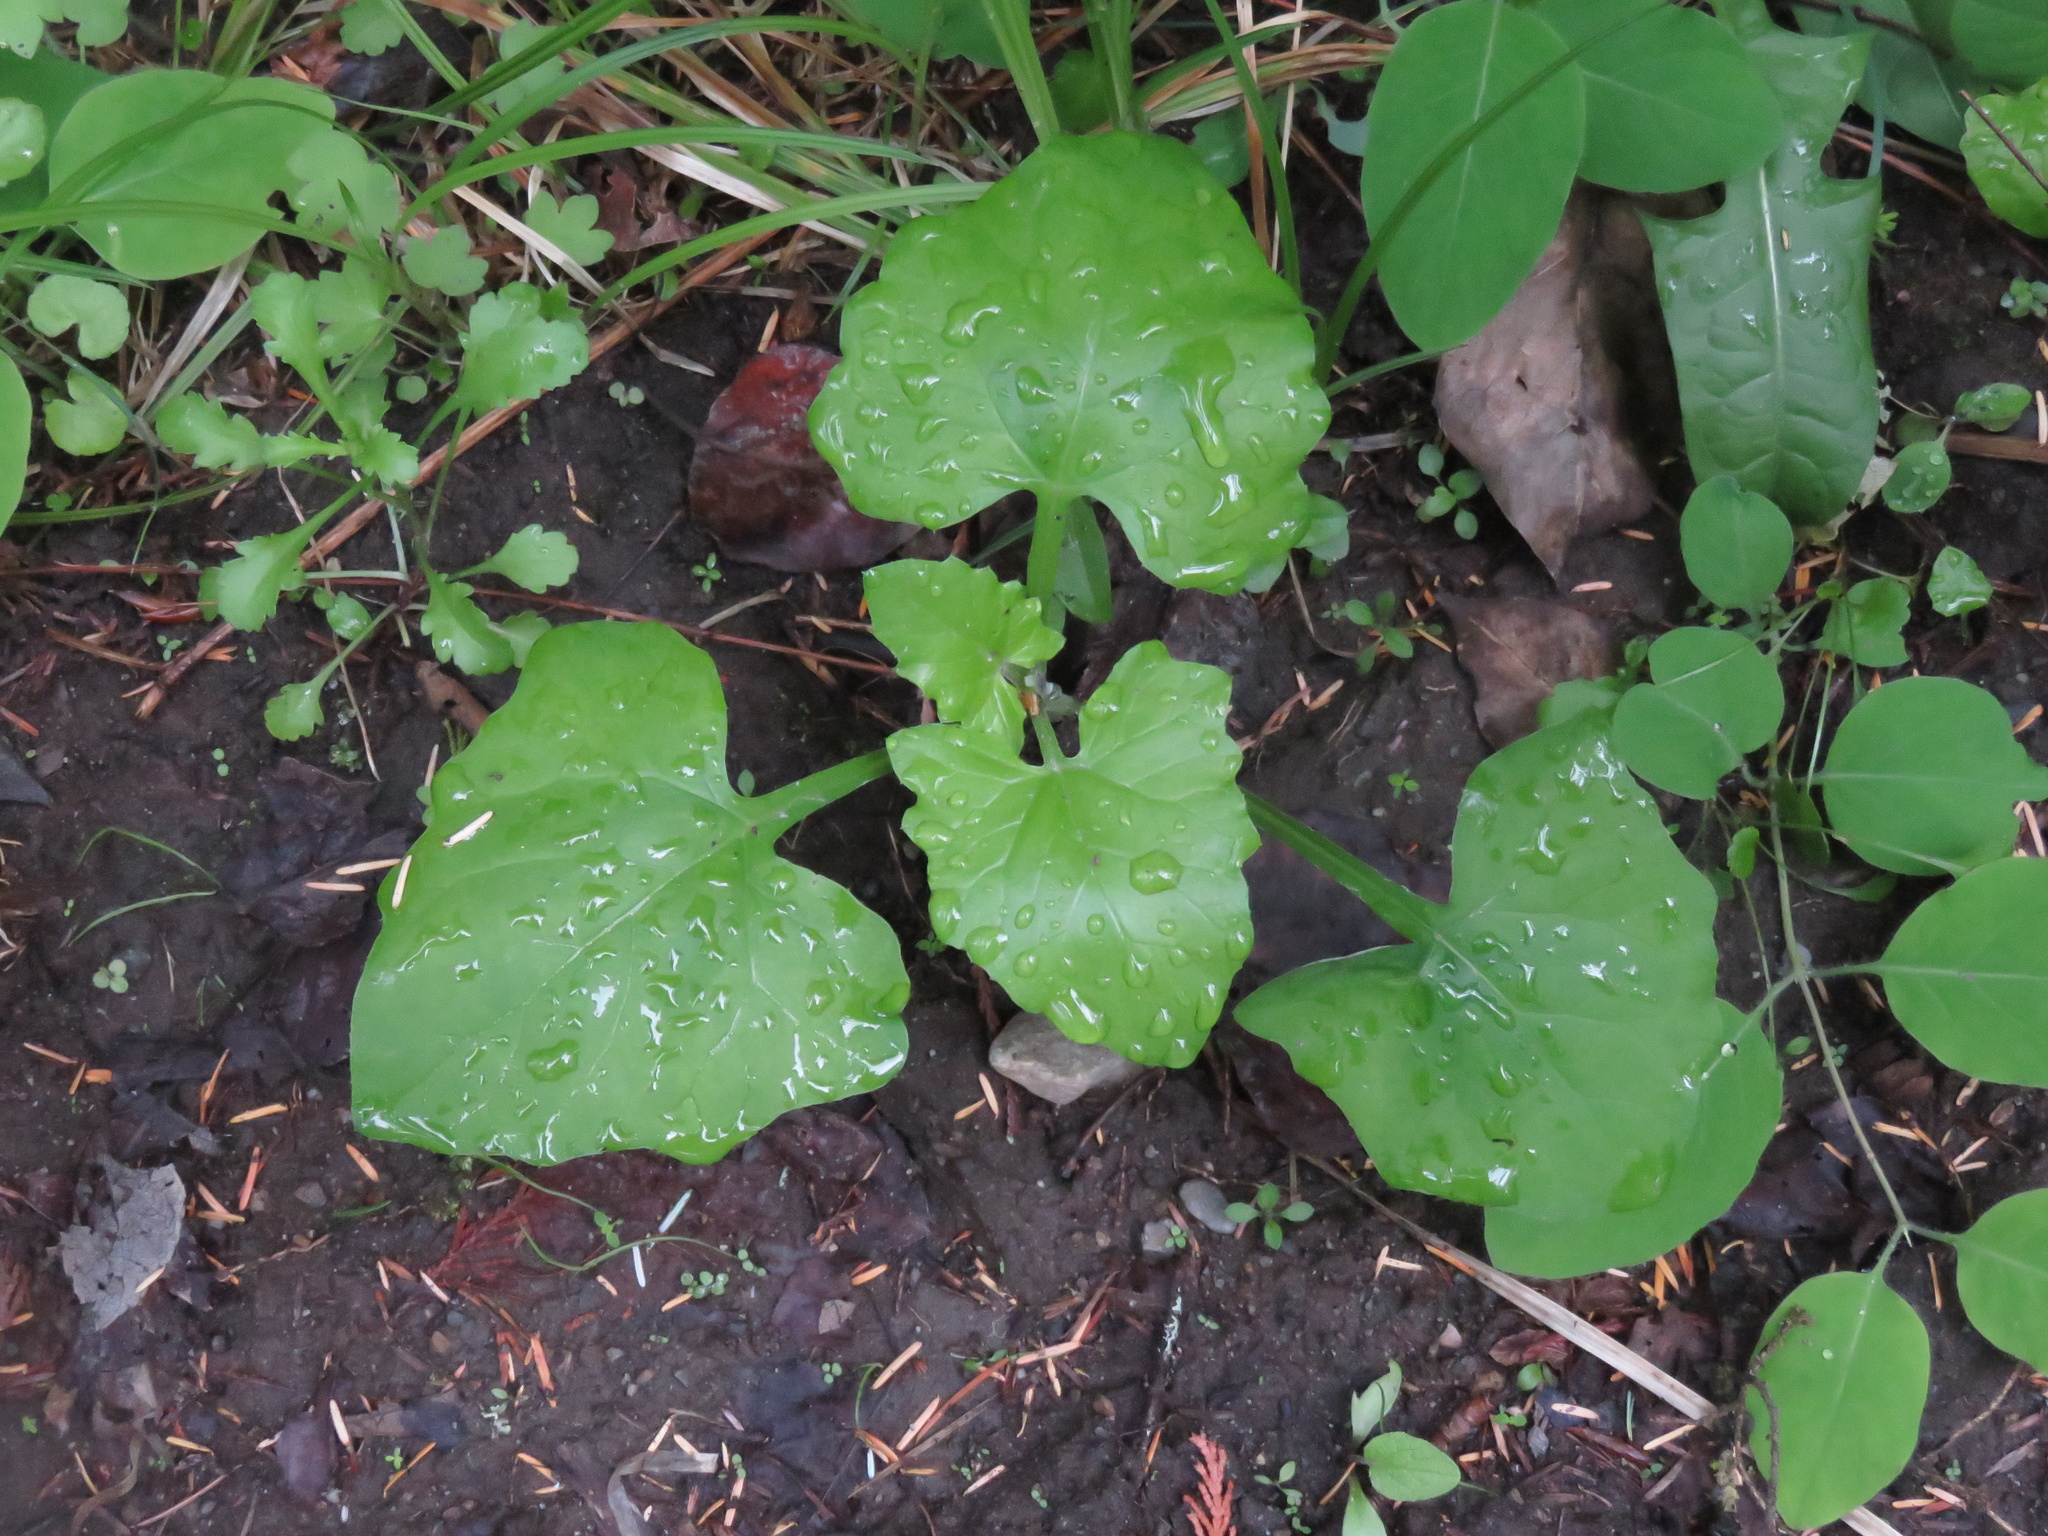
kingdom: Plantae
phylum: Tracheophyta
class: Magnoliopsida
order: Asterales
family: Asteraceae
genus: Adenocaulon
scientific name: Adenocaulon bicolor
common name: Trailplant
